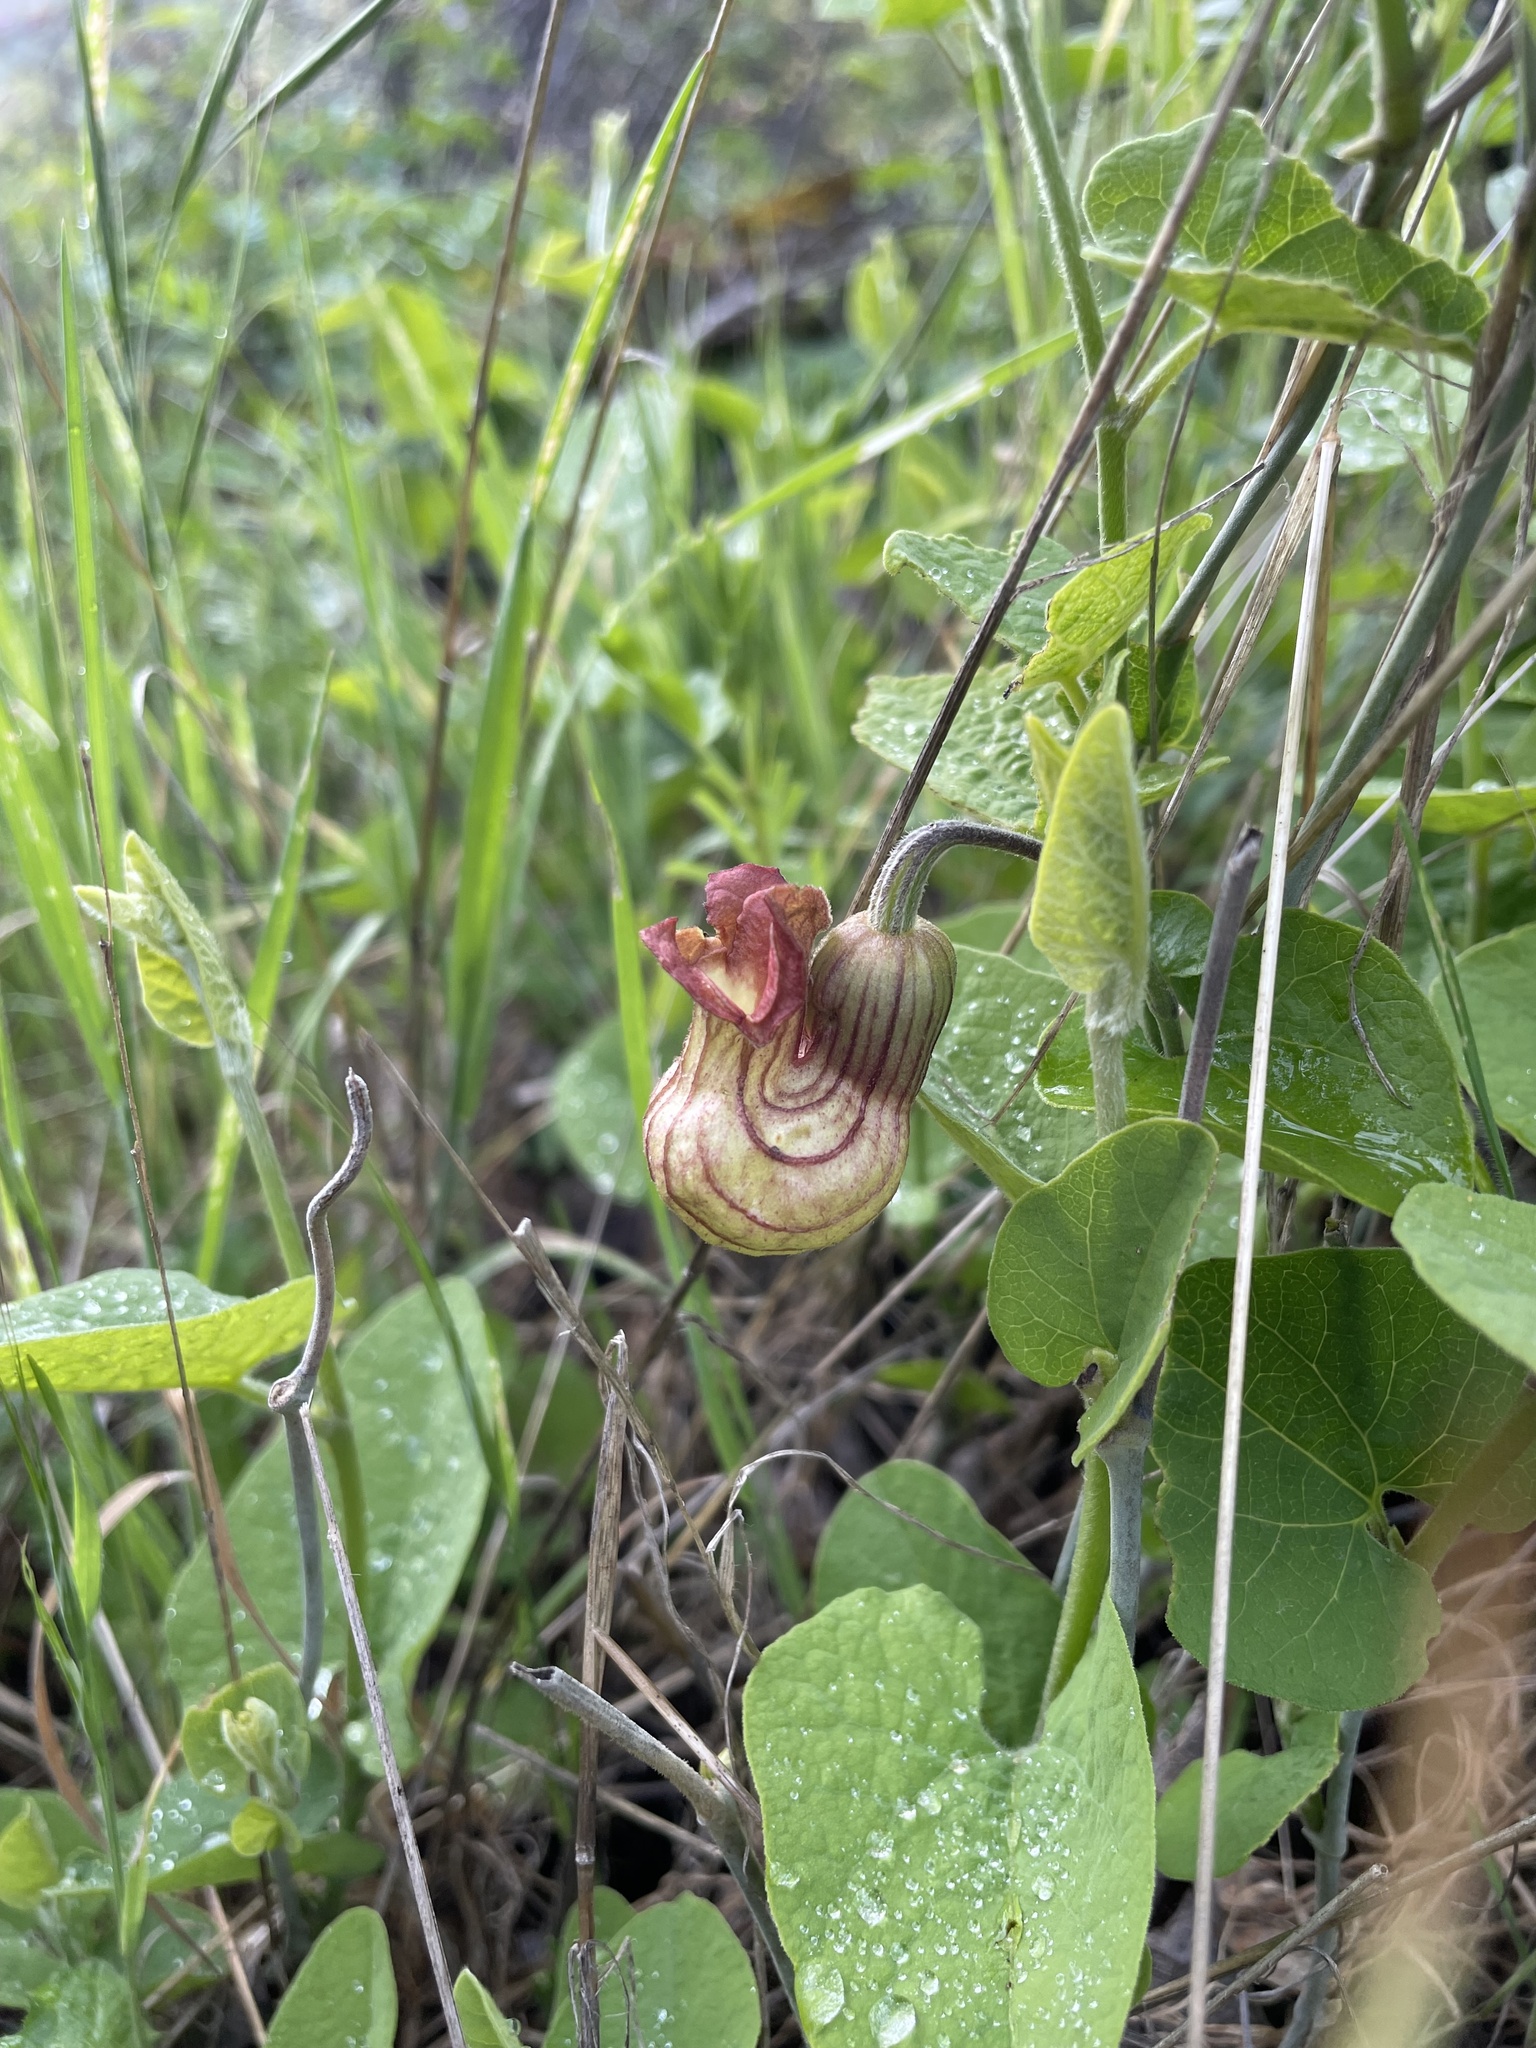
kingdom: Plantae
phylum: Tracheophyta
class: Magnoliopsida
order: Piperales
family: Aristolochiaceae
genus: Isotrema
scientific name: Isotrema californicum
